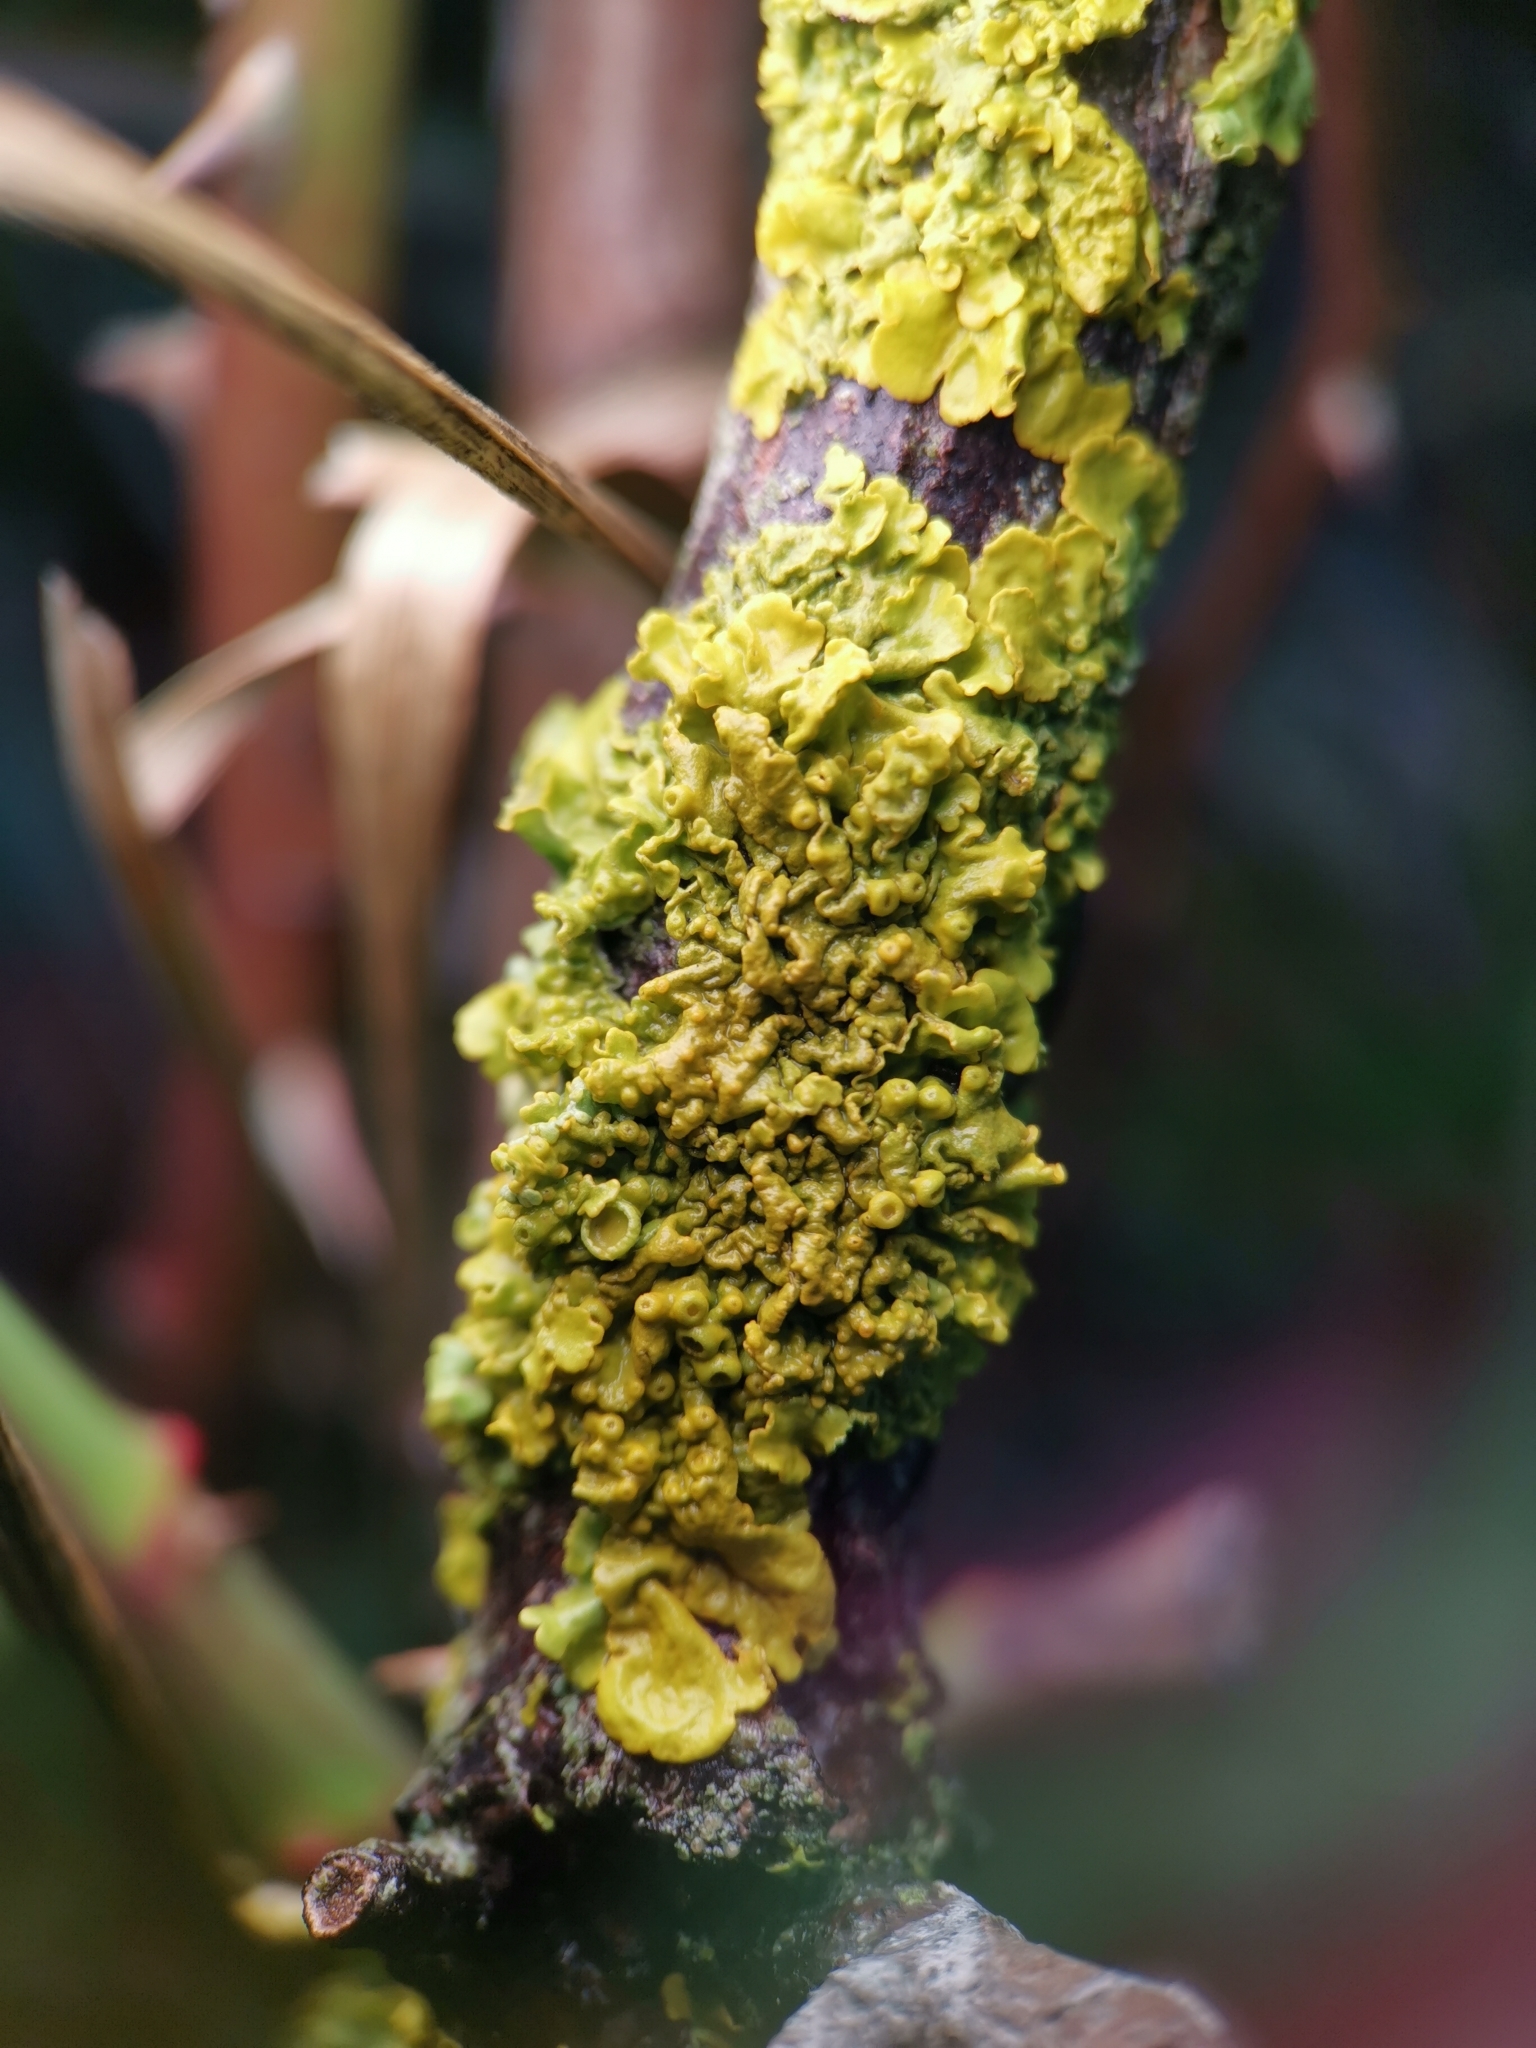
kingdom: Fungi
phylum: Ascomycota
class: Lecanoromycetes
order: Teloschistales
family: Teloschistaceae
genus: Xanthoria
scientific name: Xanthoria parietina
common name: Common orange lichen
